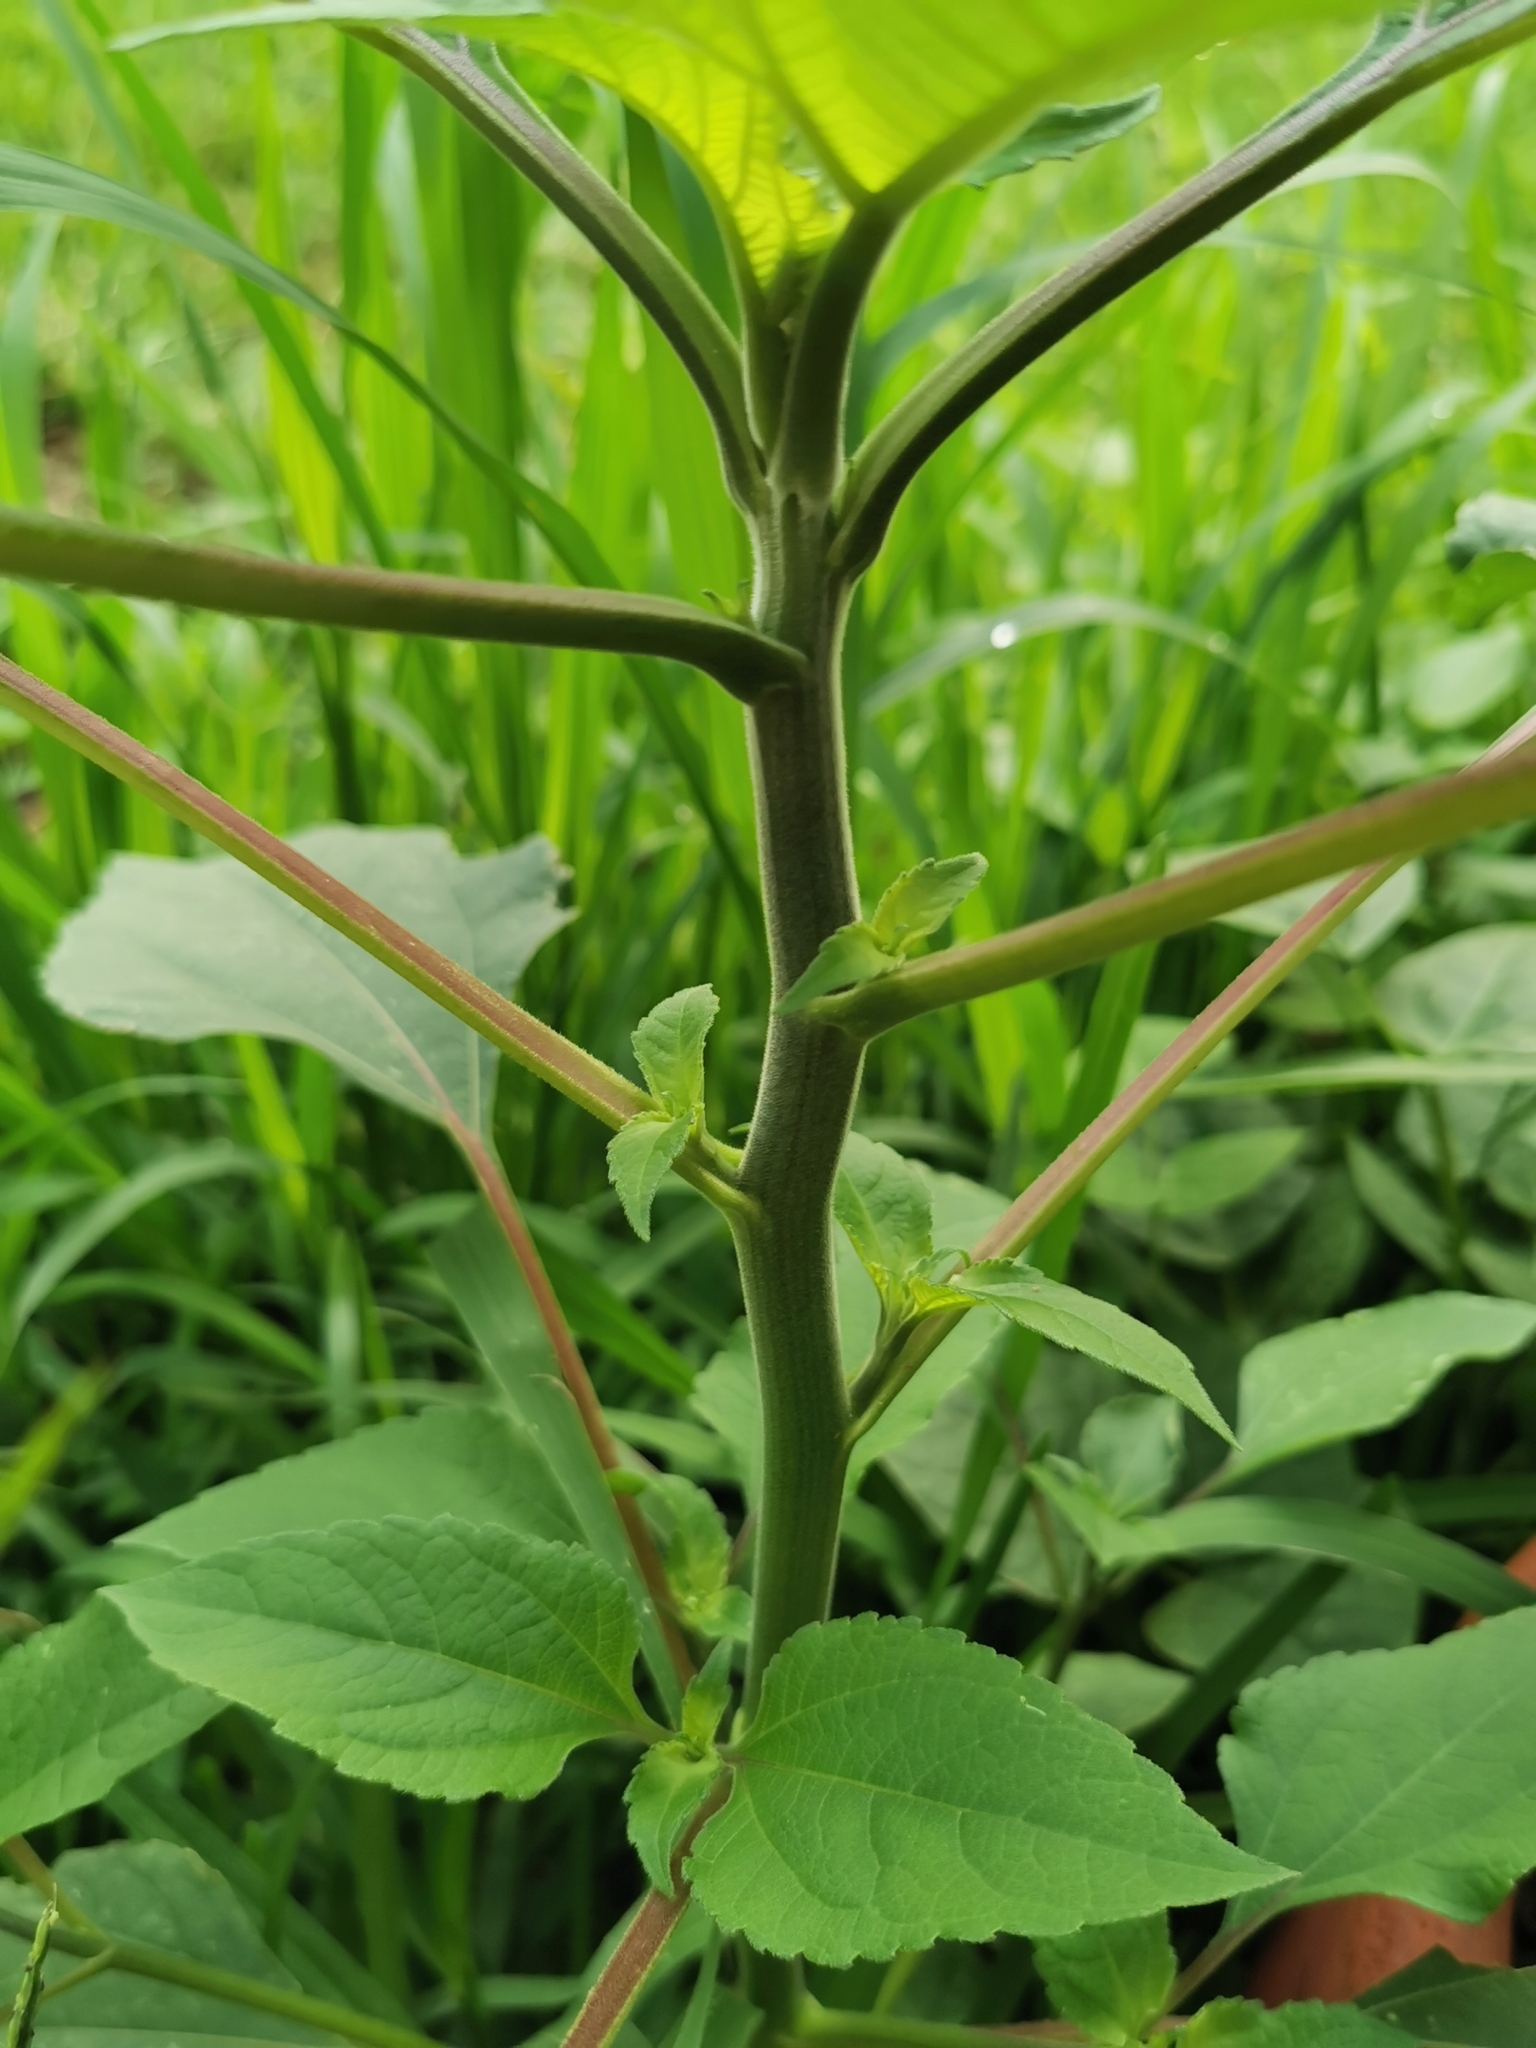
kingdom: Plantae
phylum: Tracheophyta
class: Magnoliopsida
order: Asterales
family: Asteraceae
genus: Tithonia
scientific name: Tithonia tubaeformis
